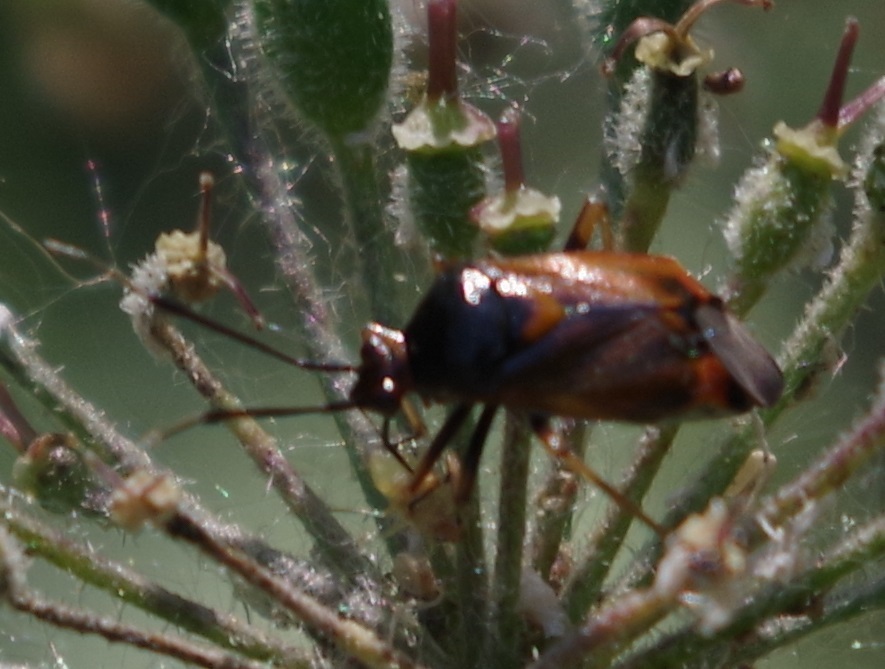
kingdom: Animalia
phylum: Arthropoda
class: Insecta
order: Hemiptera
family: Miridae
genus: Deraeocoris
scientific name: Deraeocoris ruber
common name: Plant bug
